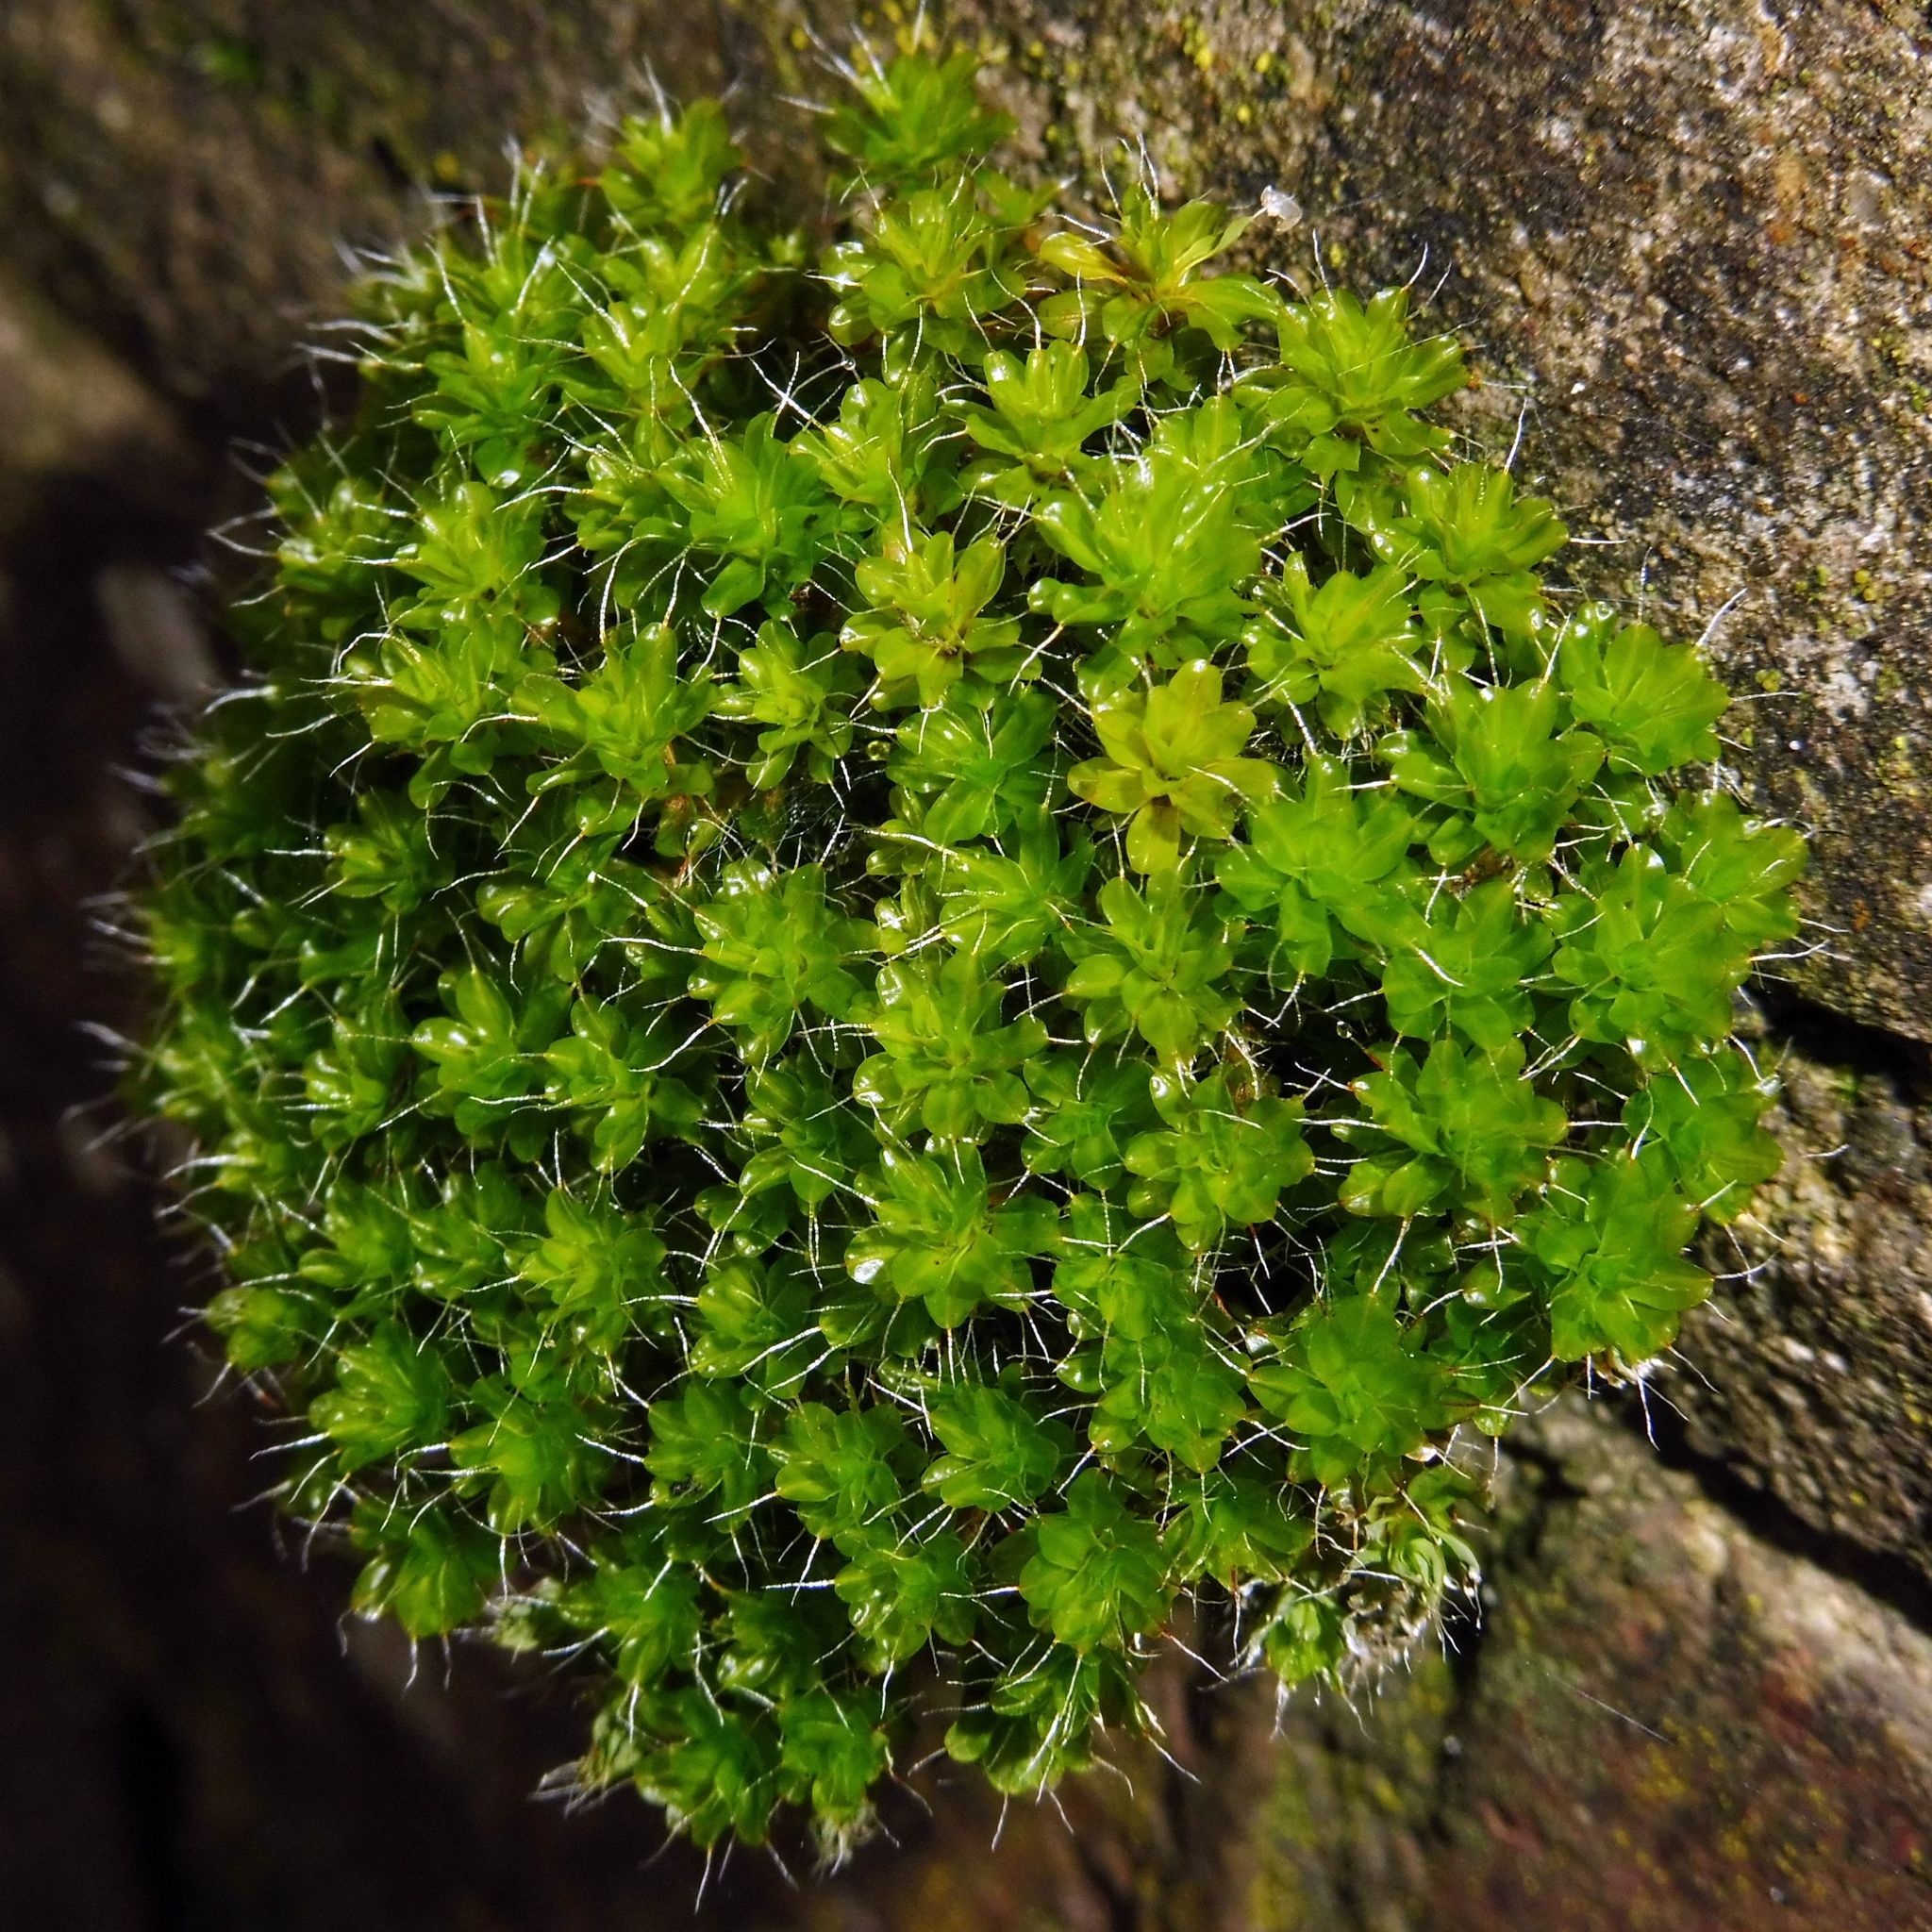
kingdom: Plantae
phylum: Bryophyta
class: Bryopsida
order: Pottiales
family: Pottiaceae
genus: Syntrichia
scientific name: Syntrichia montana
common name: Intermediate screw-moss
